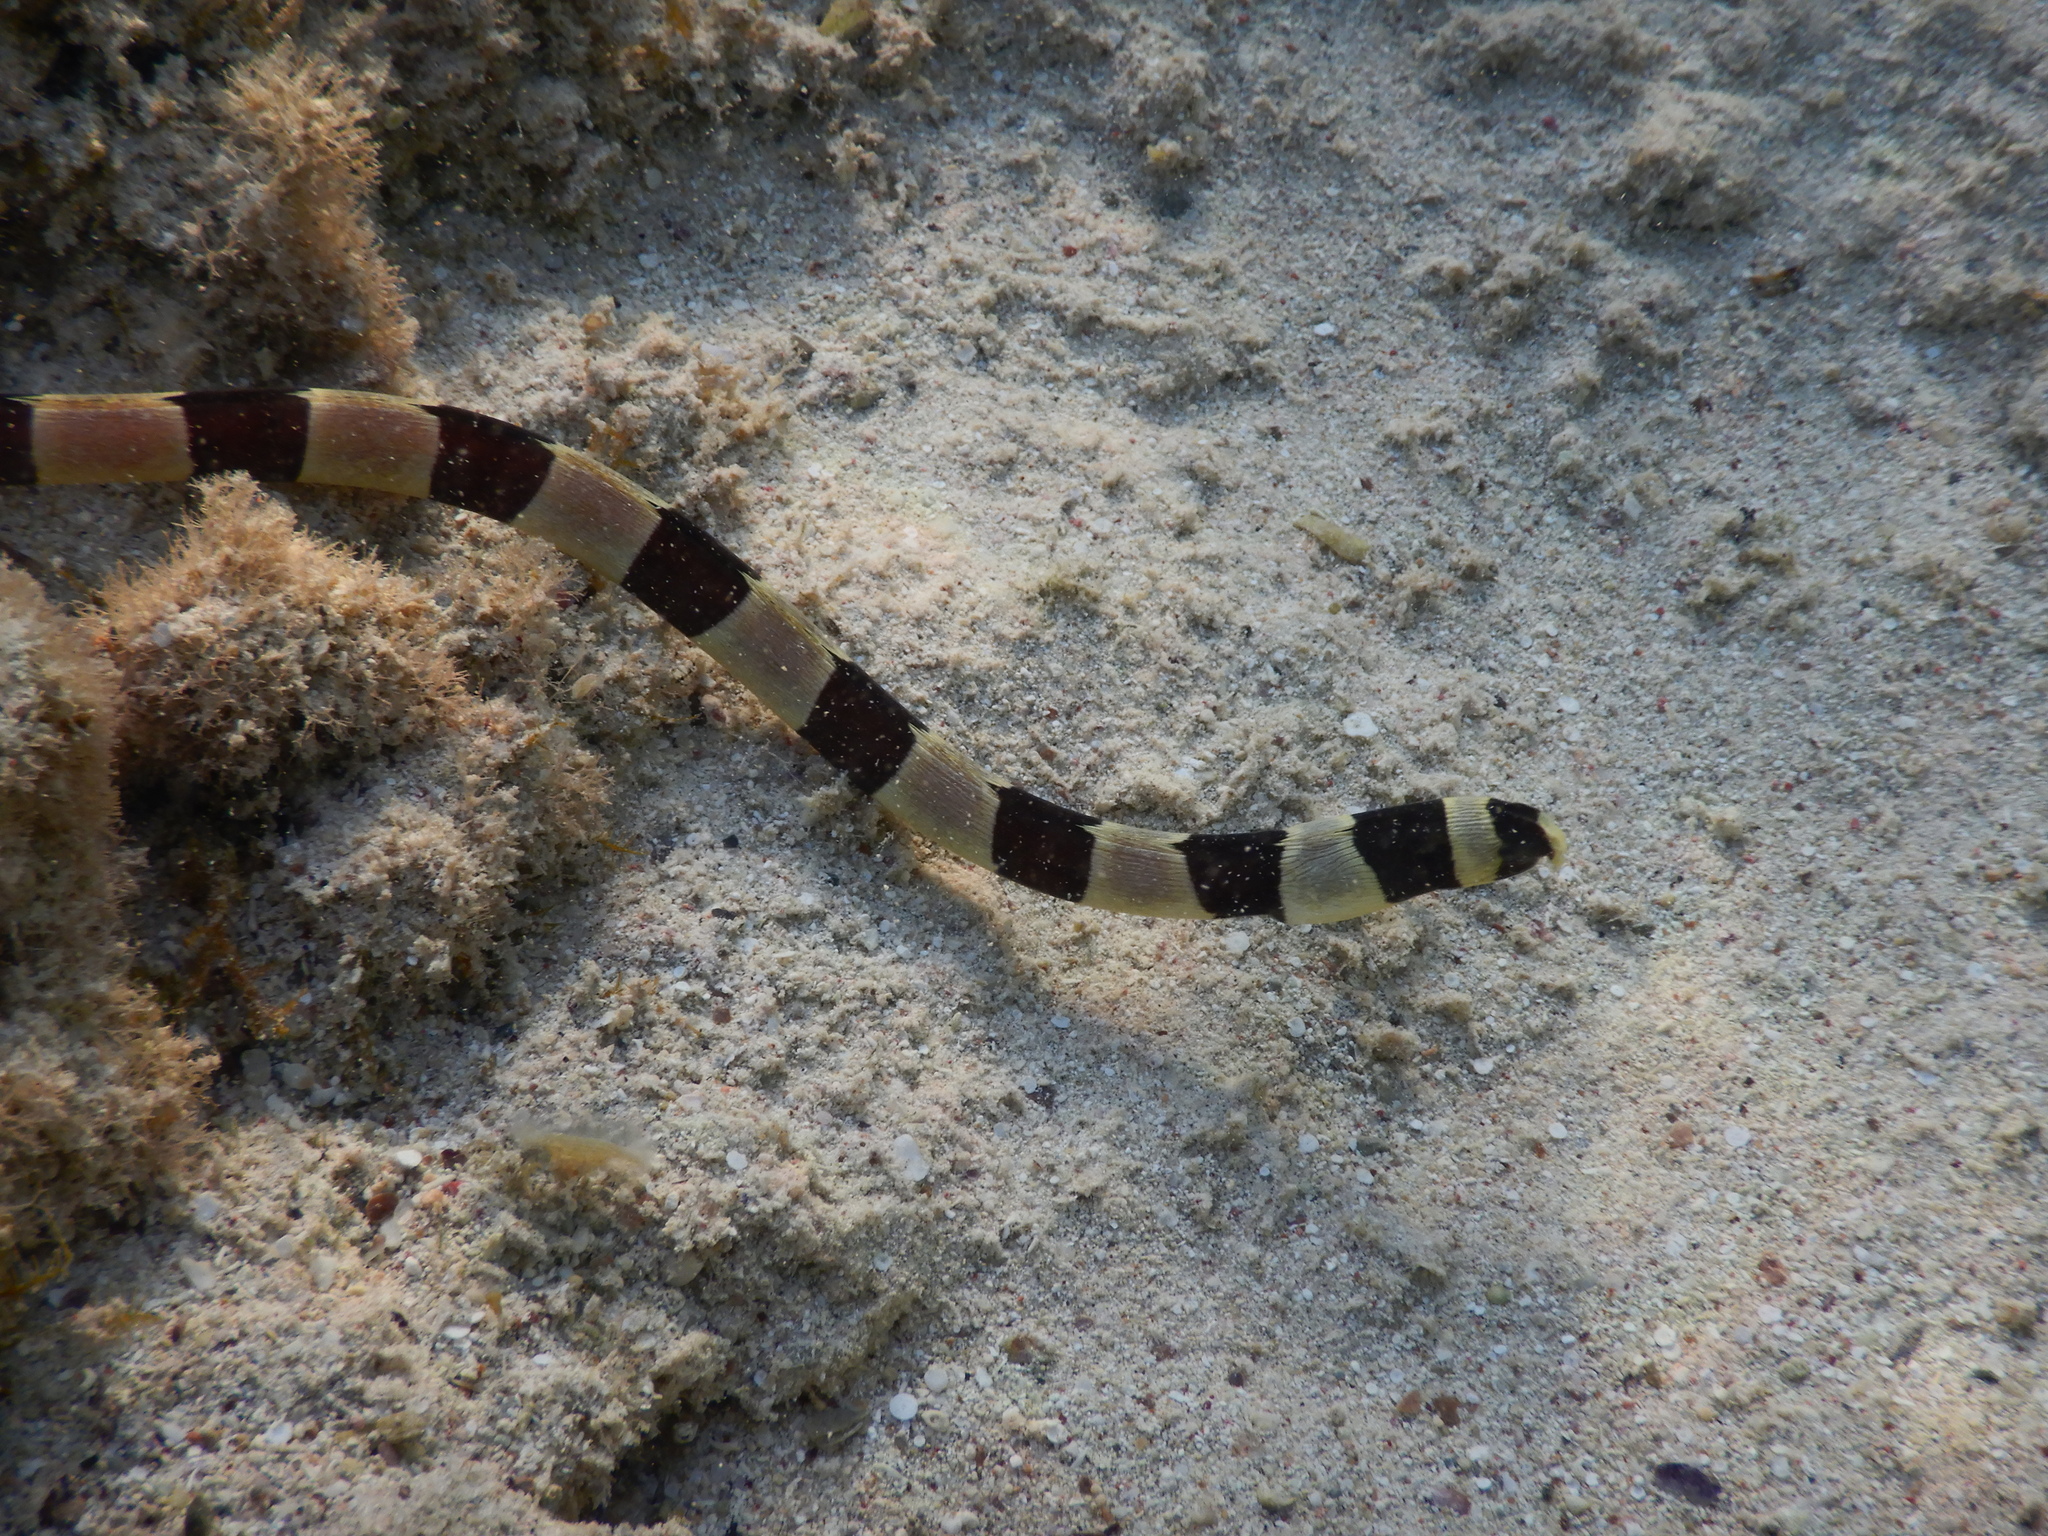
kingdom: Animalia
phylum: Chordata
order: Anguilliformes
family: Ophichthidae
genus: Myrichthys
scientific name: Myrichthys colubrinus
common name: Harlequin snake eel
